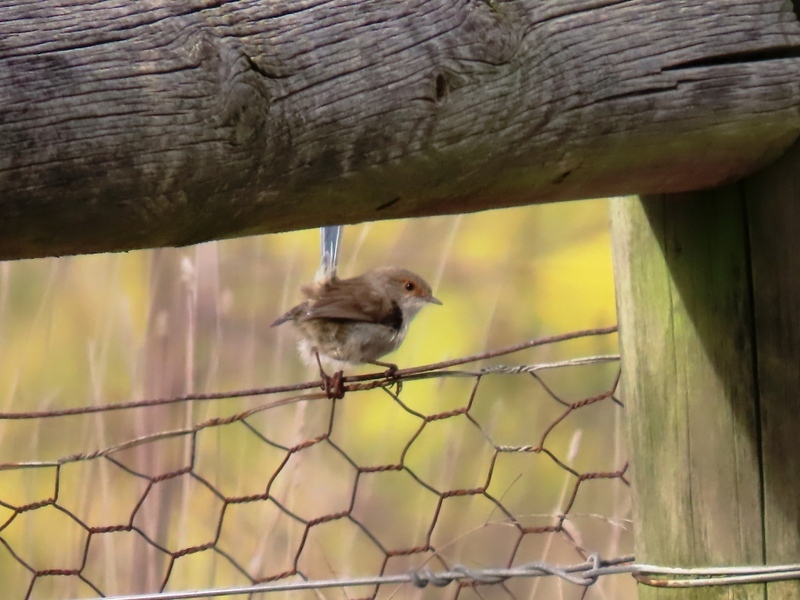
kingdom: Animalia
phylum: Chordata
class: Aves
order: Passeriformes
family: Maluridae
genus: Malurus
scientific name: Malurus cyaneus
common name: Superb fairywren
